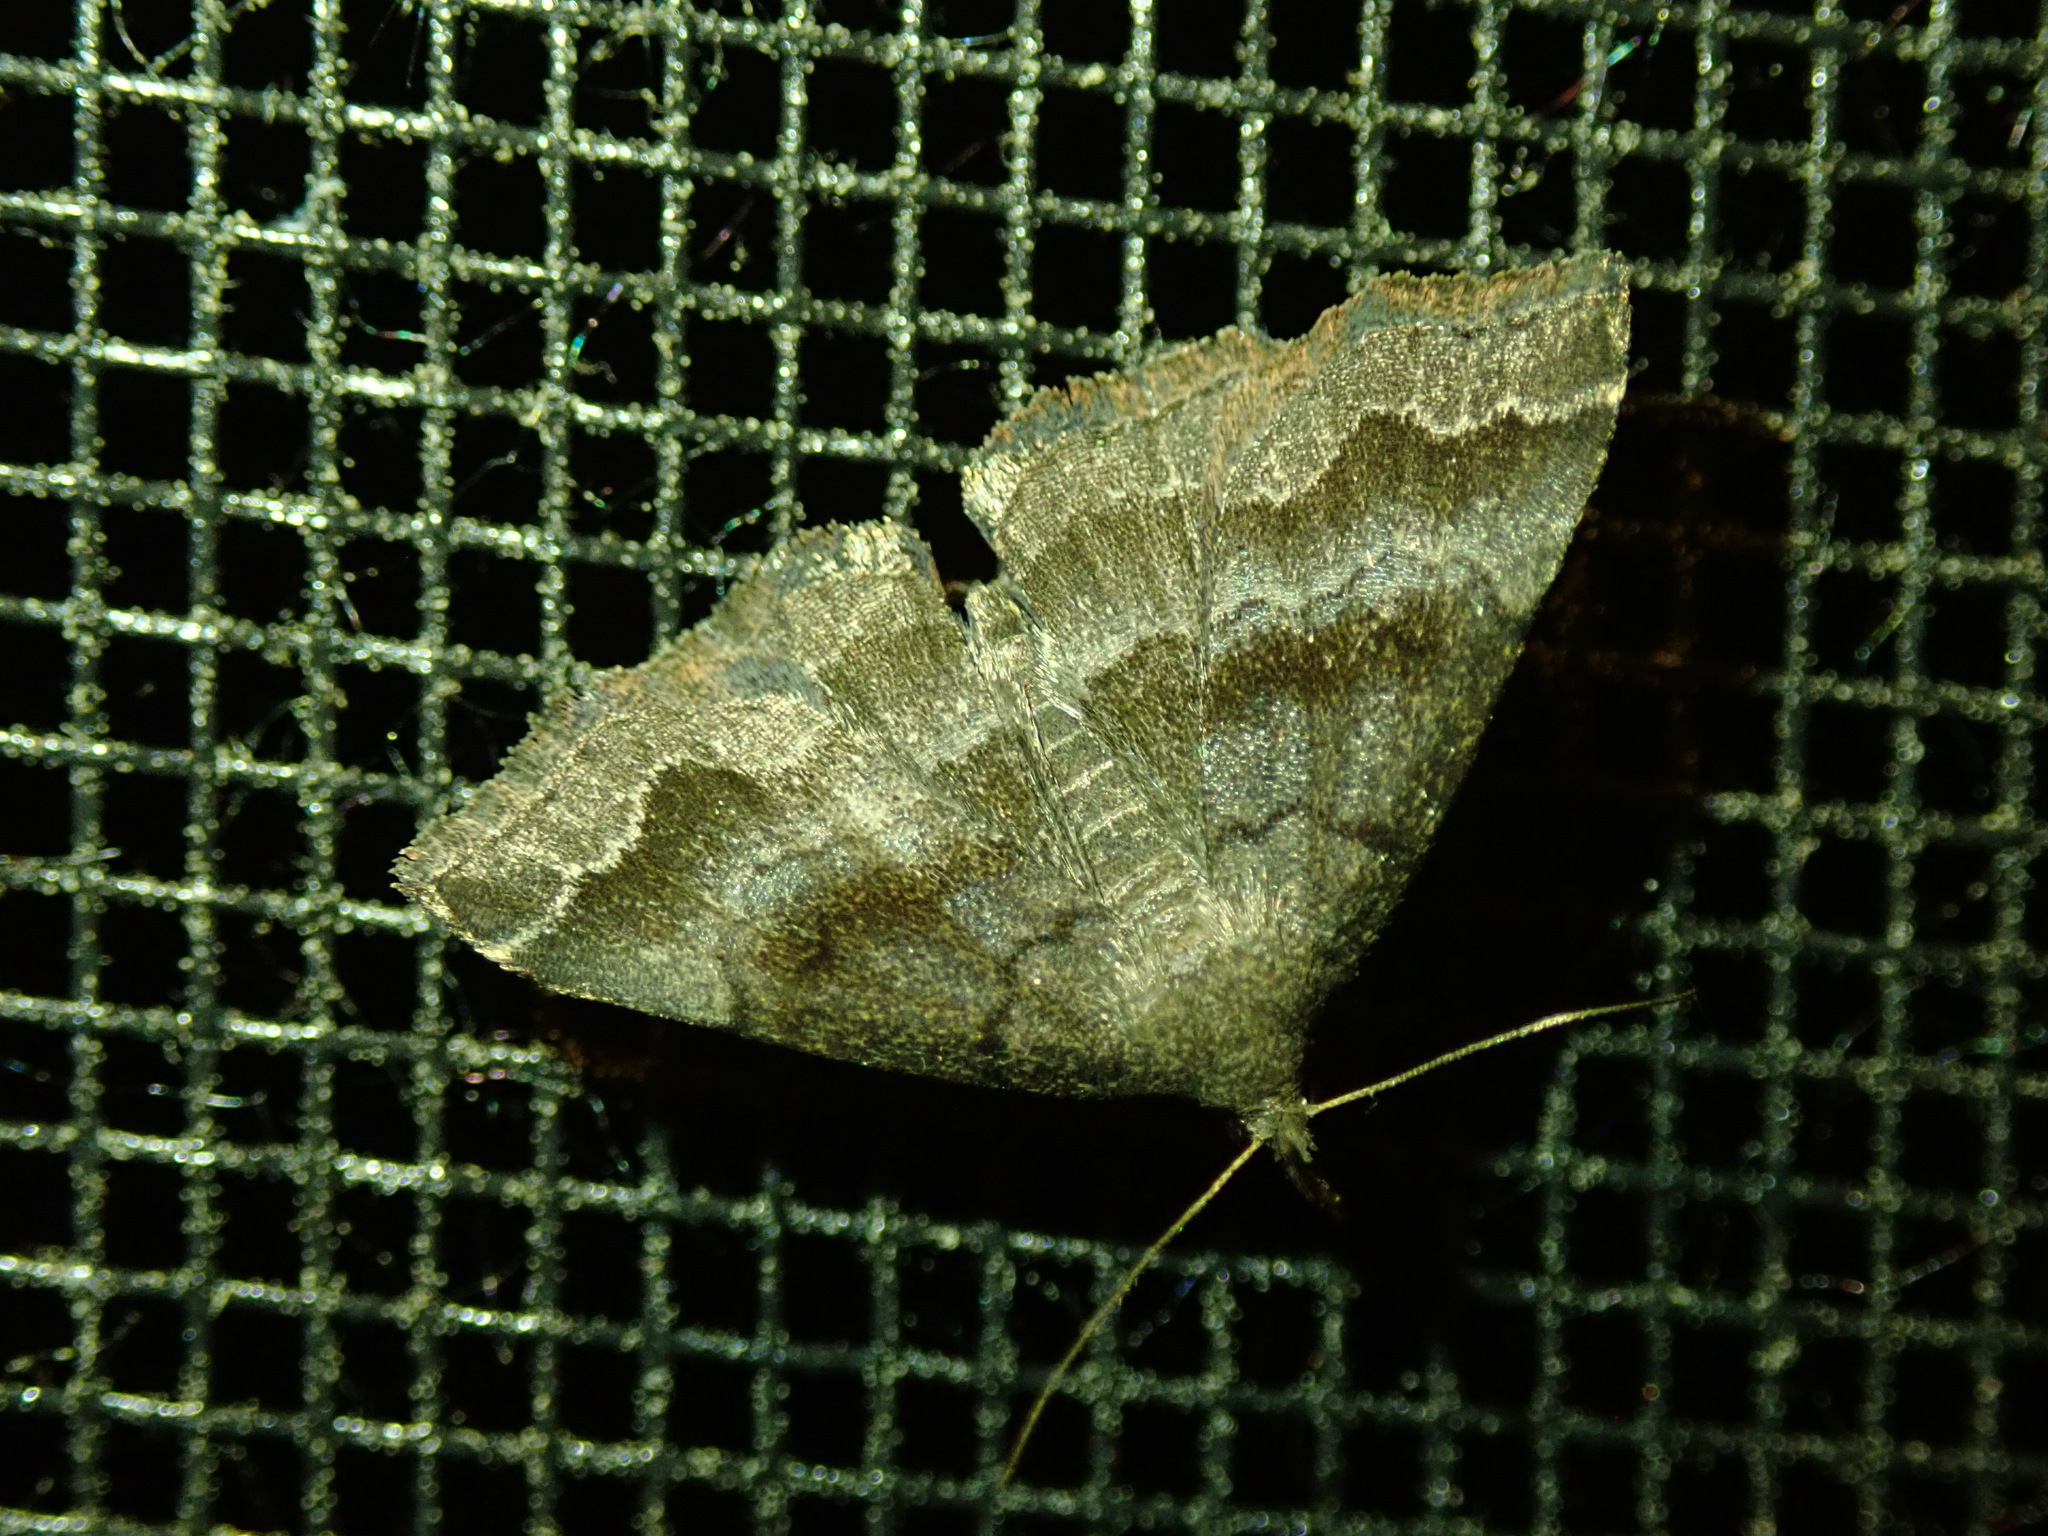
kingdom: Animalia
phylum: Arthropoda
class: Insecta
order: Lepidoptera
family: Erebidae
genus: Phalaenostola
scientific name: Phalaenostola larentioides
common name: Black-banded owlet
